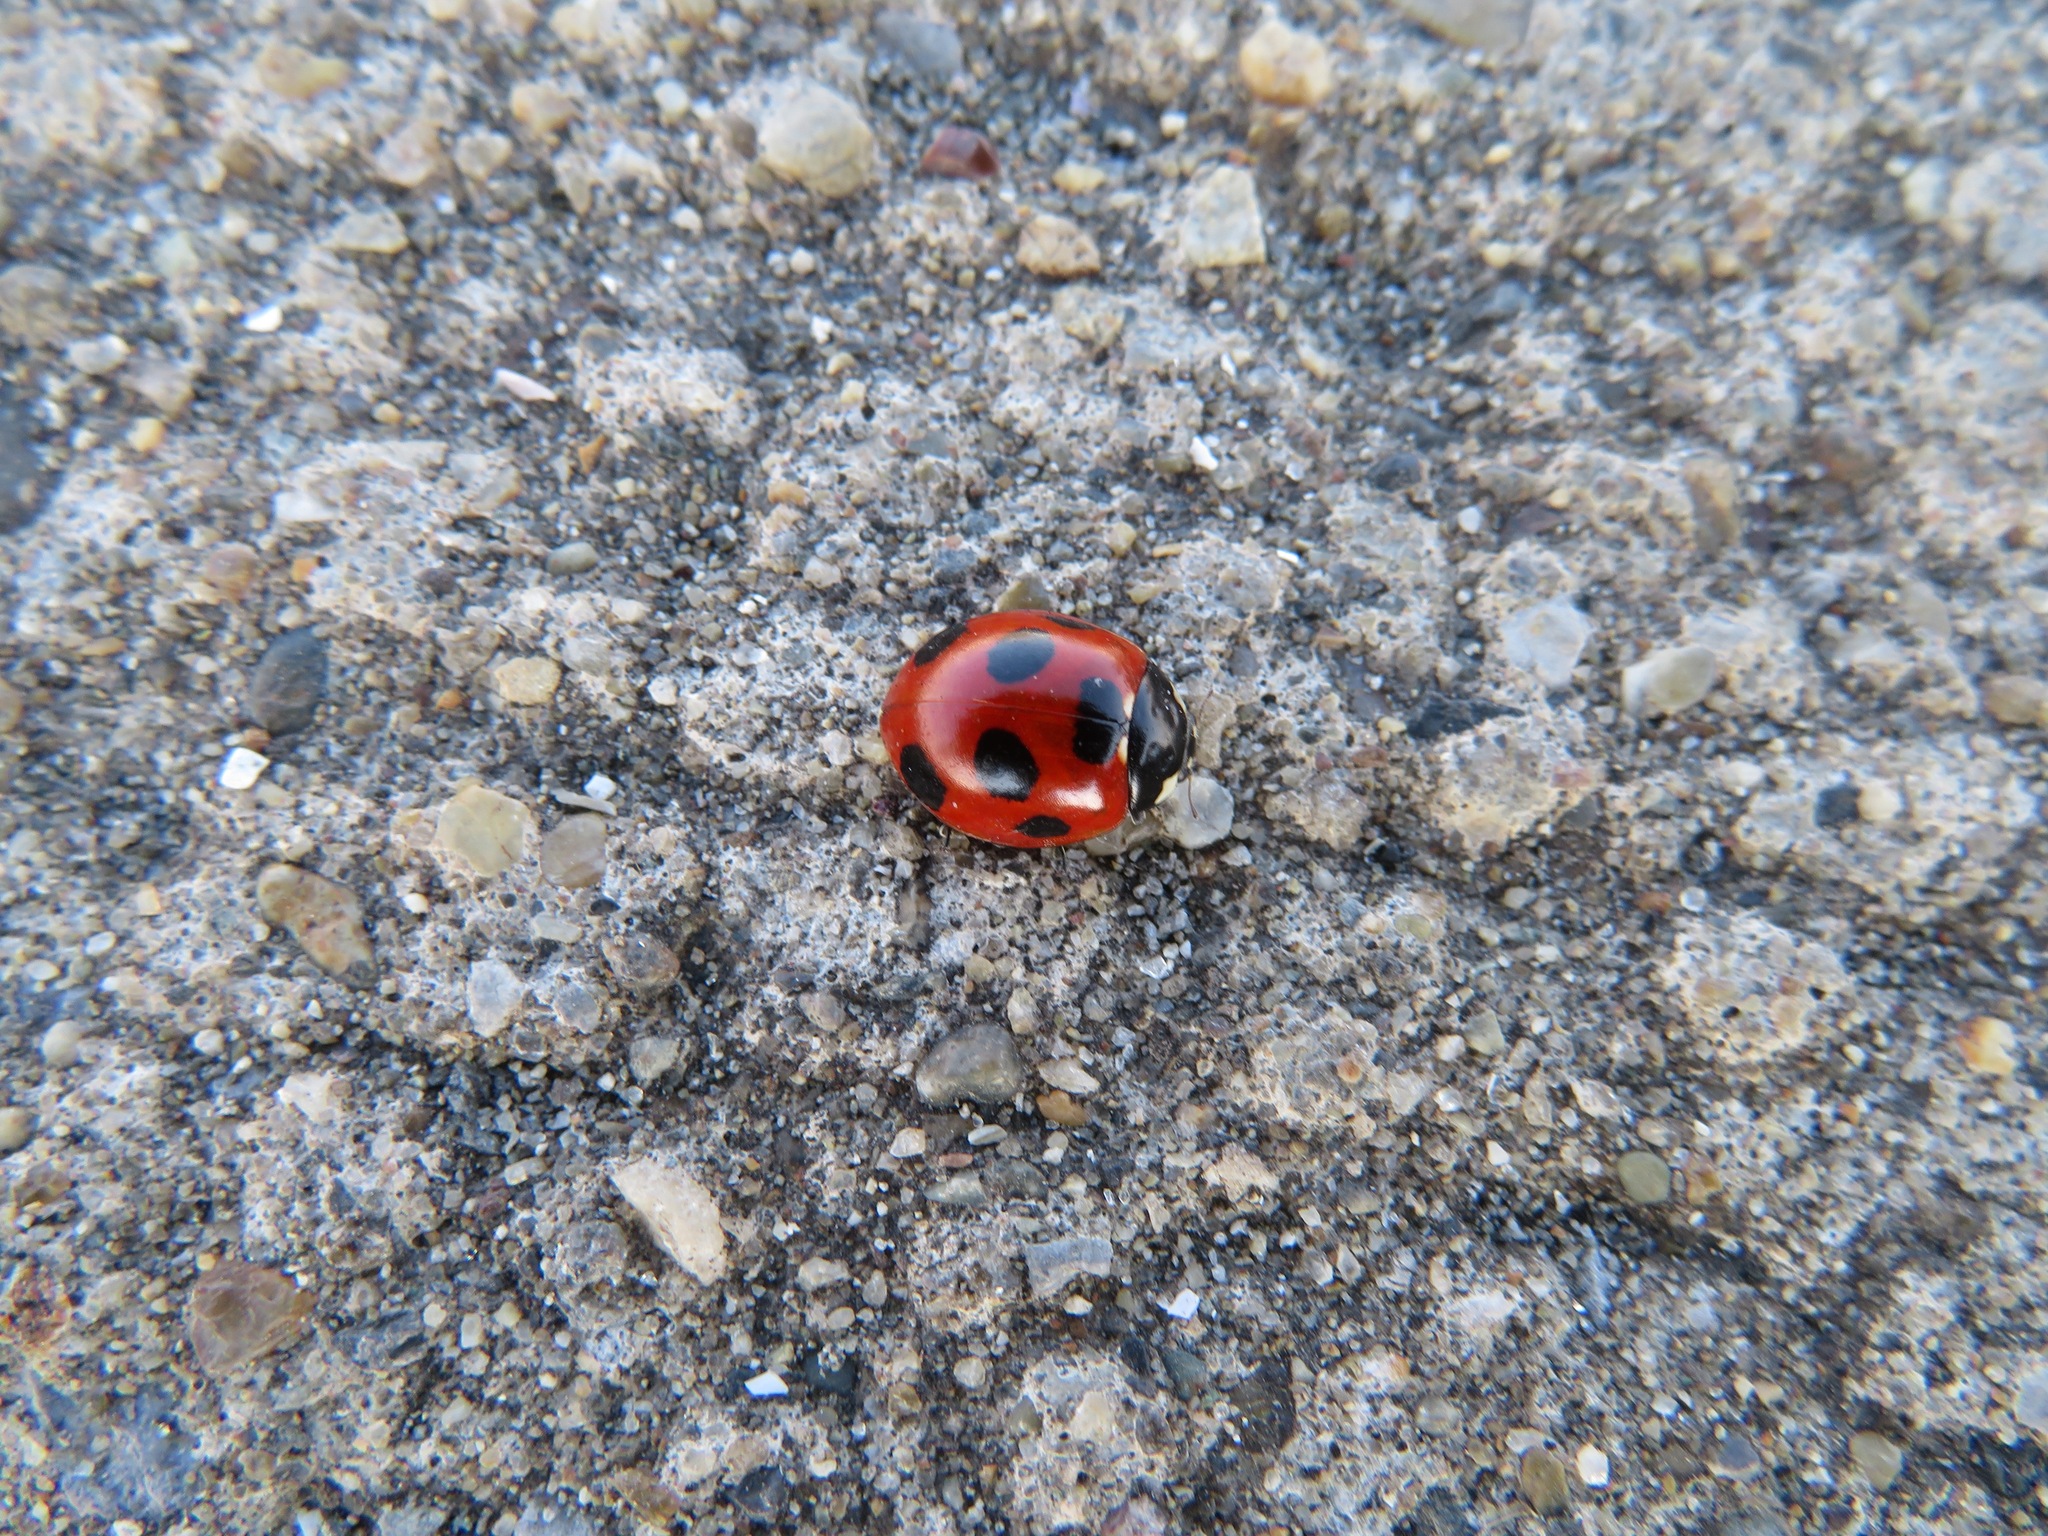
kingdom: Animalia
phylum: Arthropoda
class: Insecta
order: Coleoptera
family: Coccinellidae
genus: Coccinella
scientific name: Coccinella septempunctata
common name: Sevenspotted lady beetle
